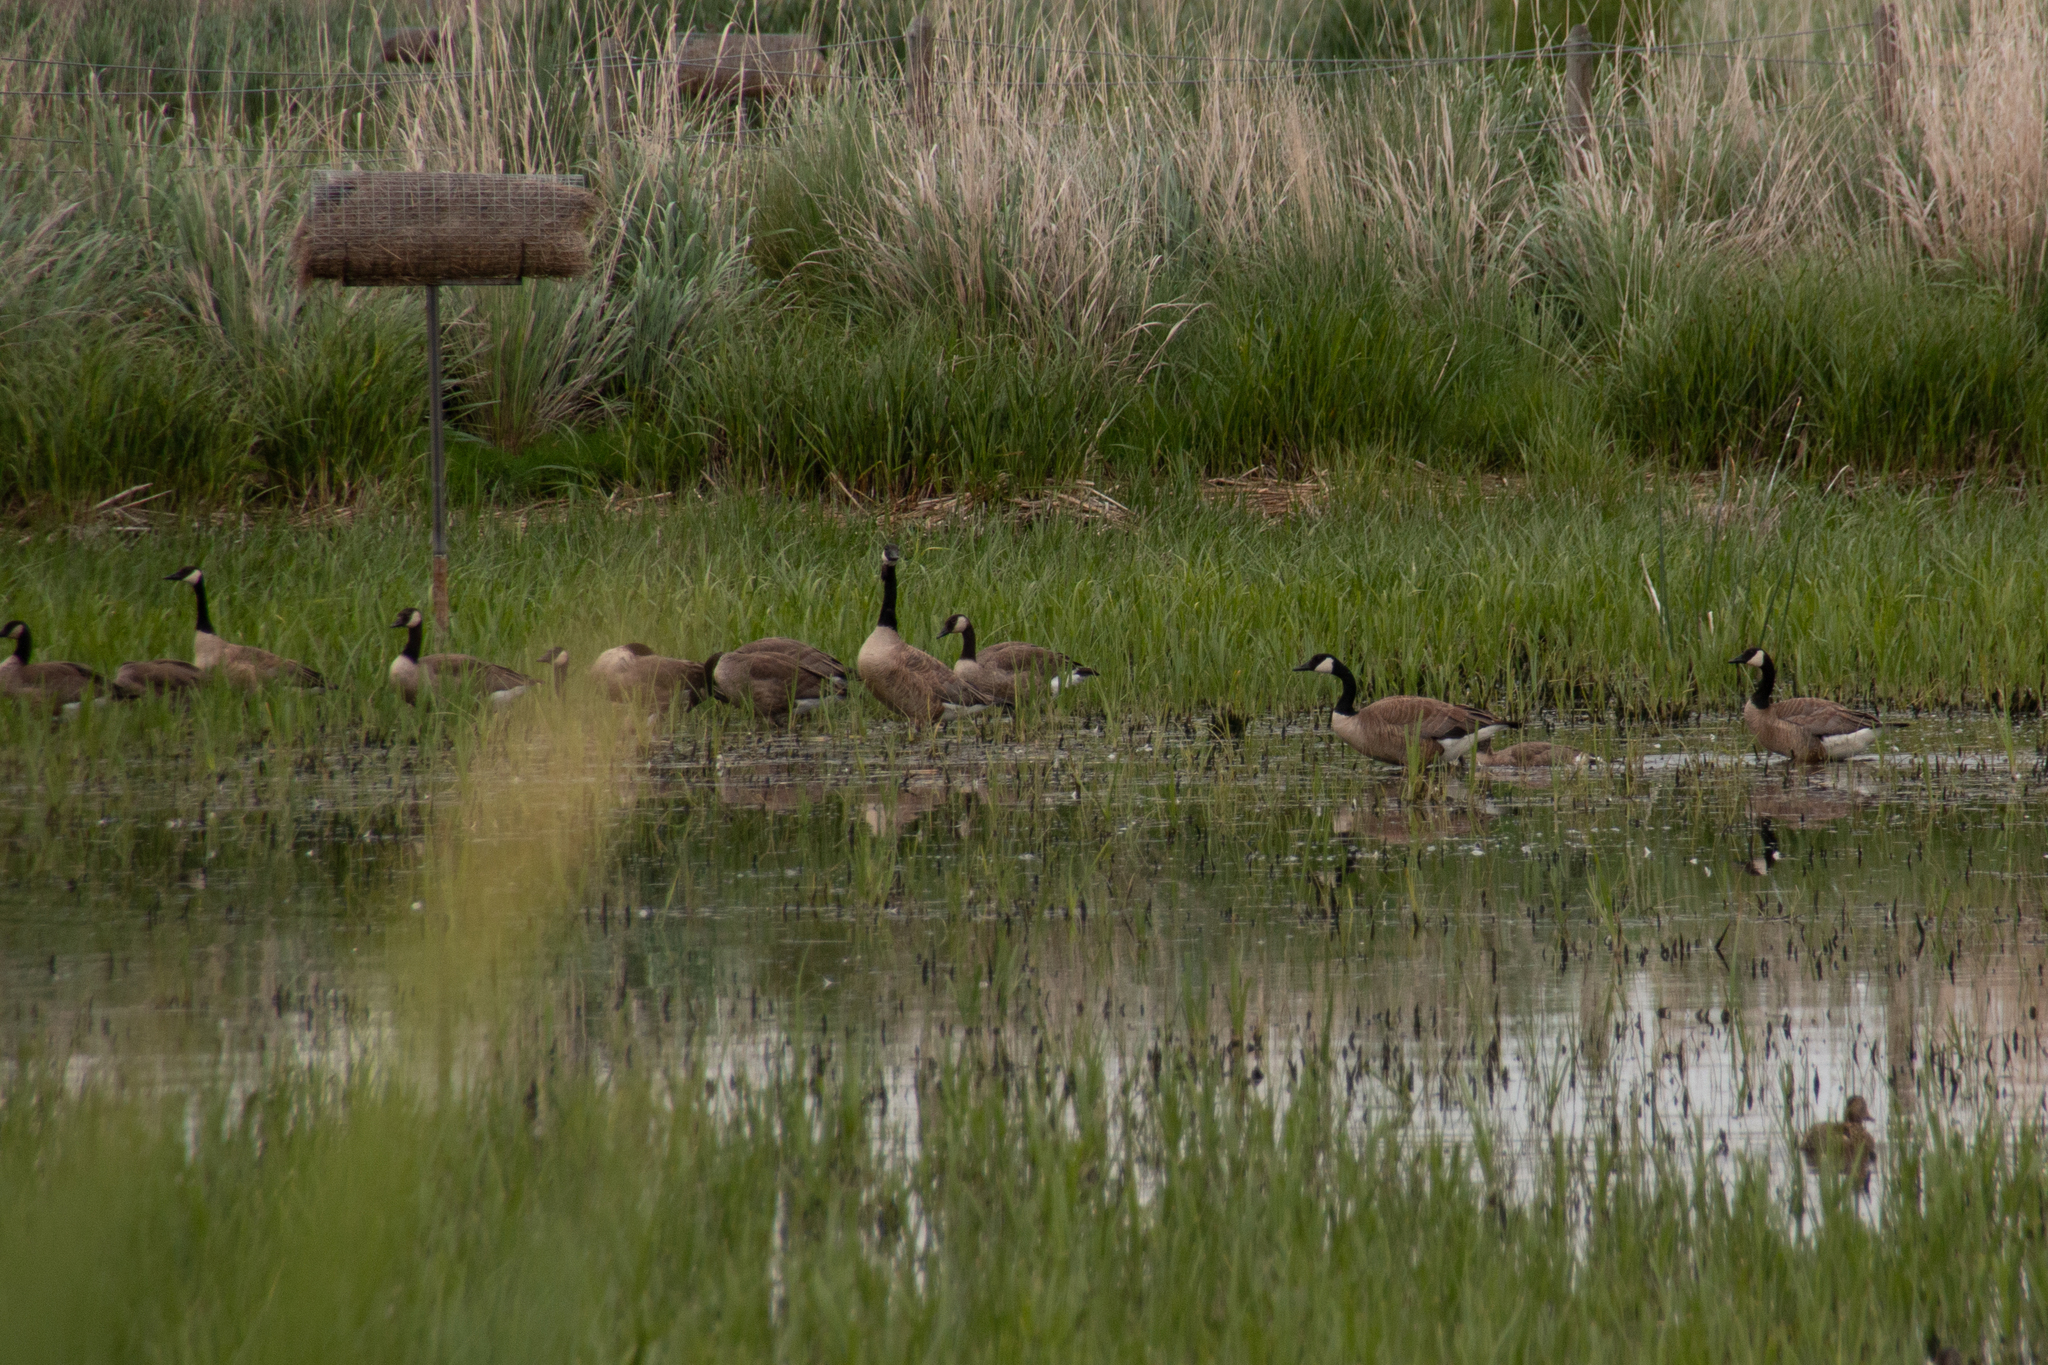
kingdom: Animalia
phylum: Chordata
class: Aves
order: Anseriformes
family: Anatidae
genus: Branta
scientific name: Branta canadensis
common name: Canada goose
